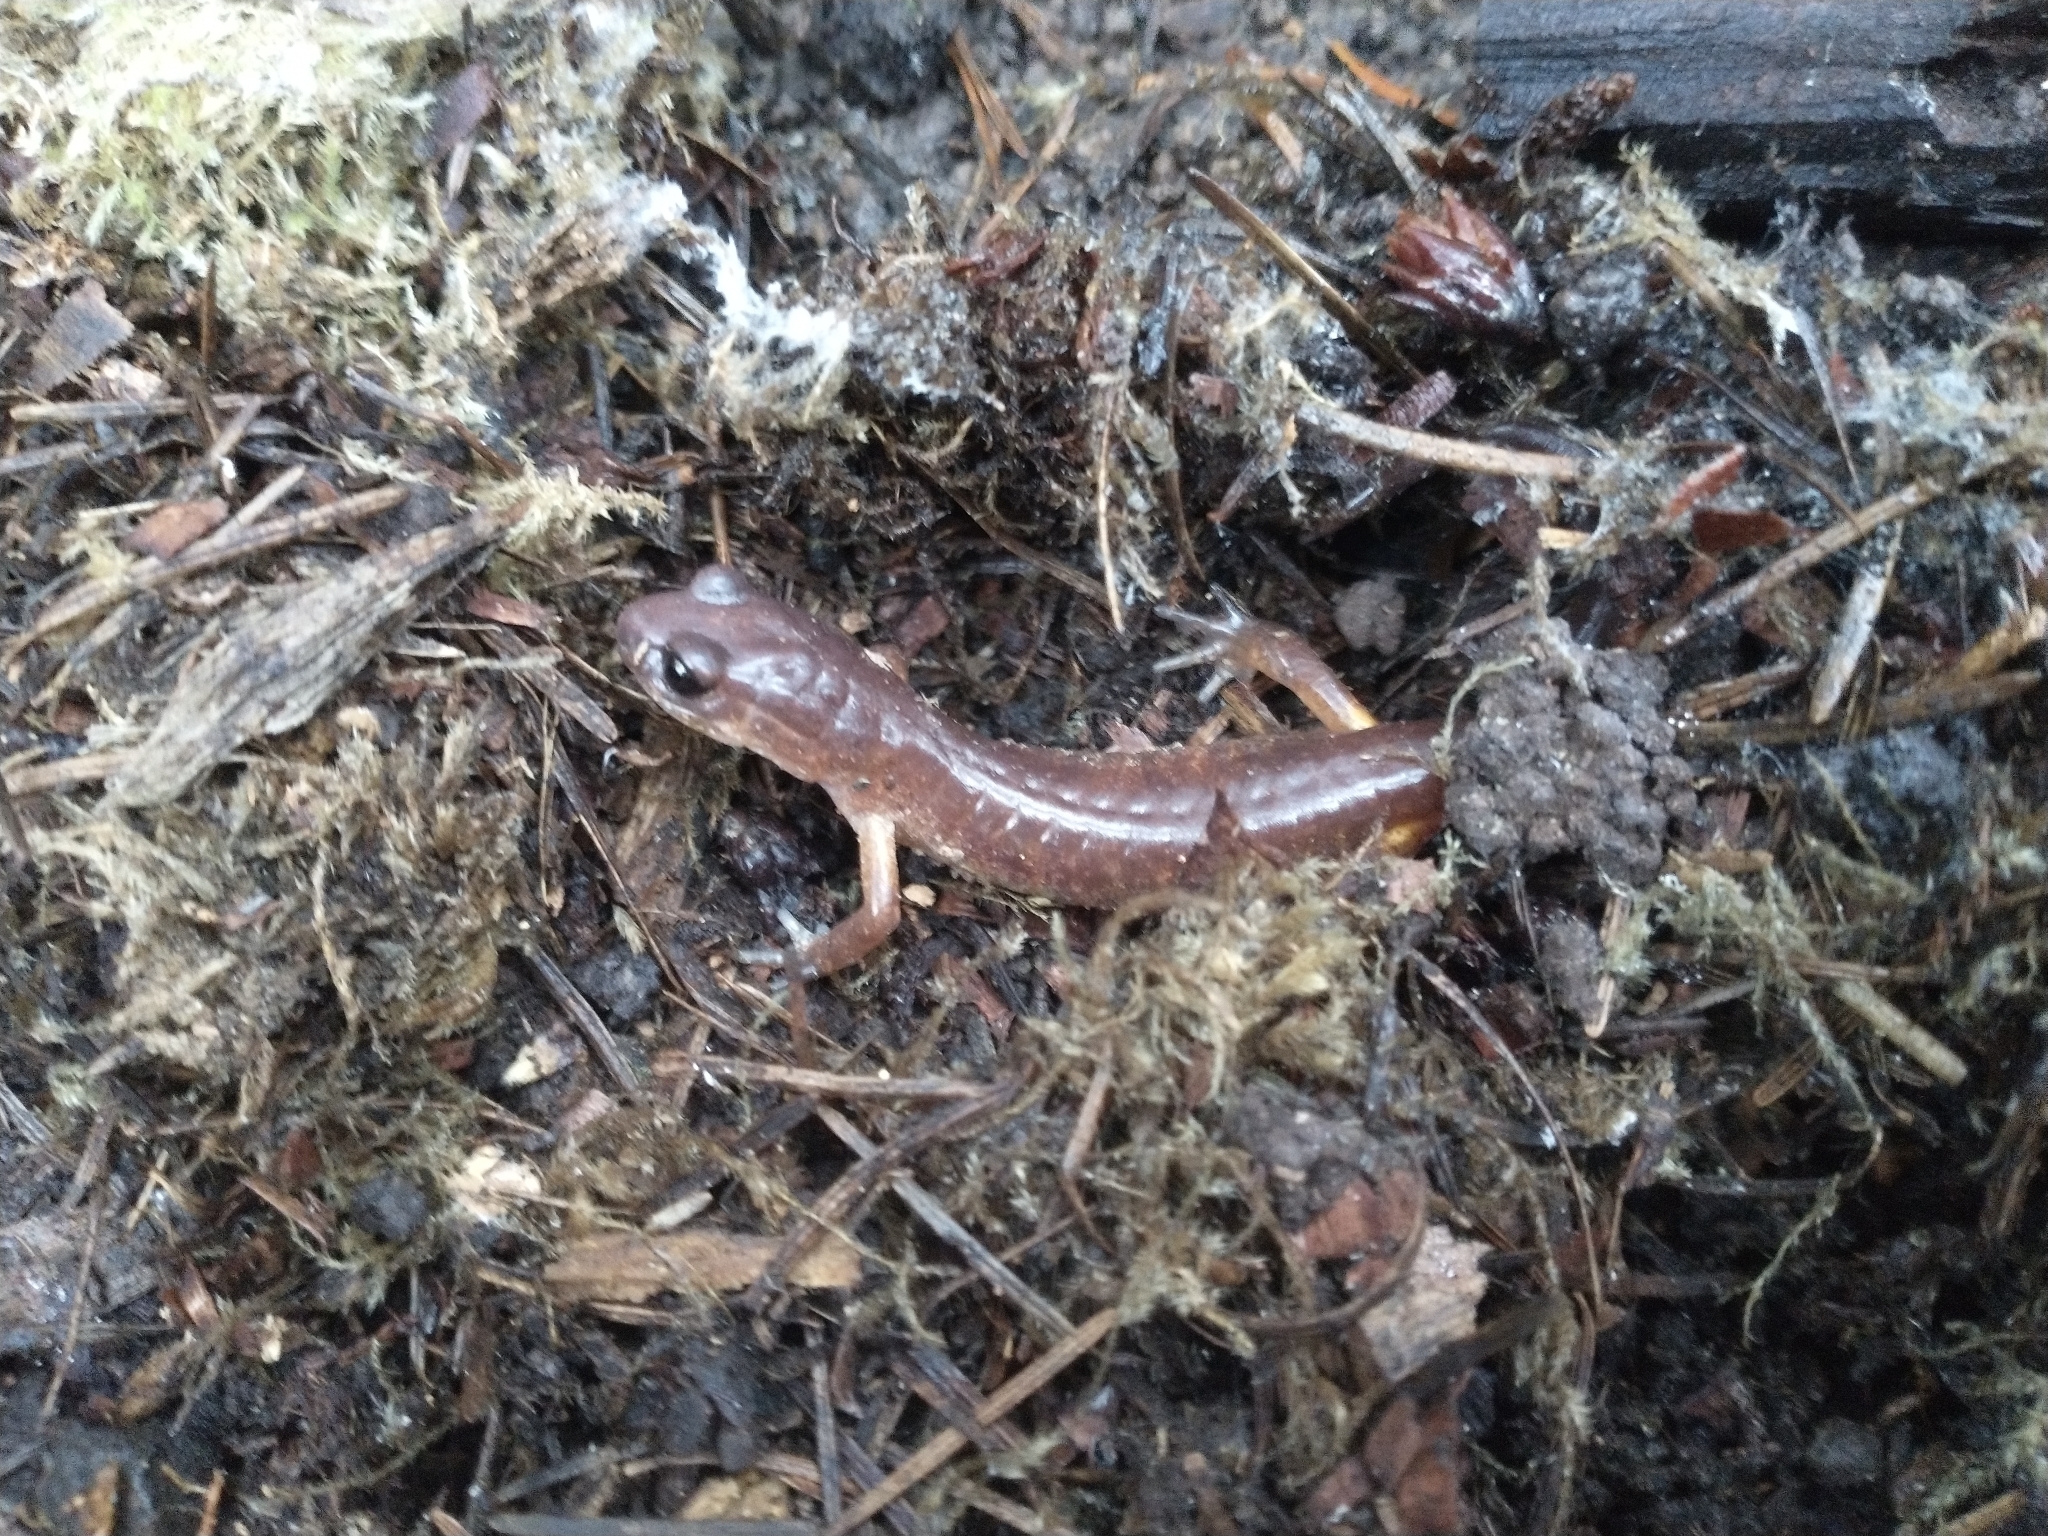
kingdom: Animalia
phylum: Chordata
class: Amphibia
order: Caudata
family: Plethodontidae
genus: Ensatina
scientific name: Ensatina eschscholtzii
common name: Ensatina
